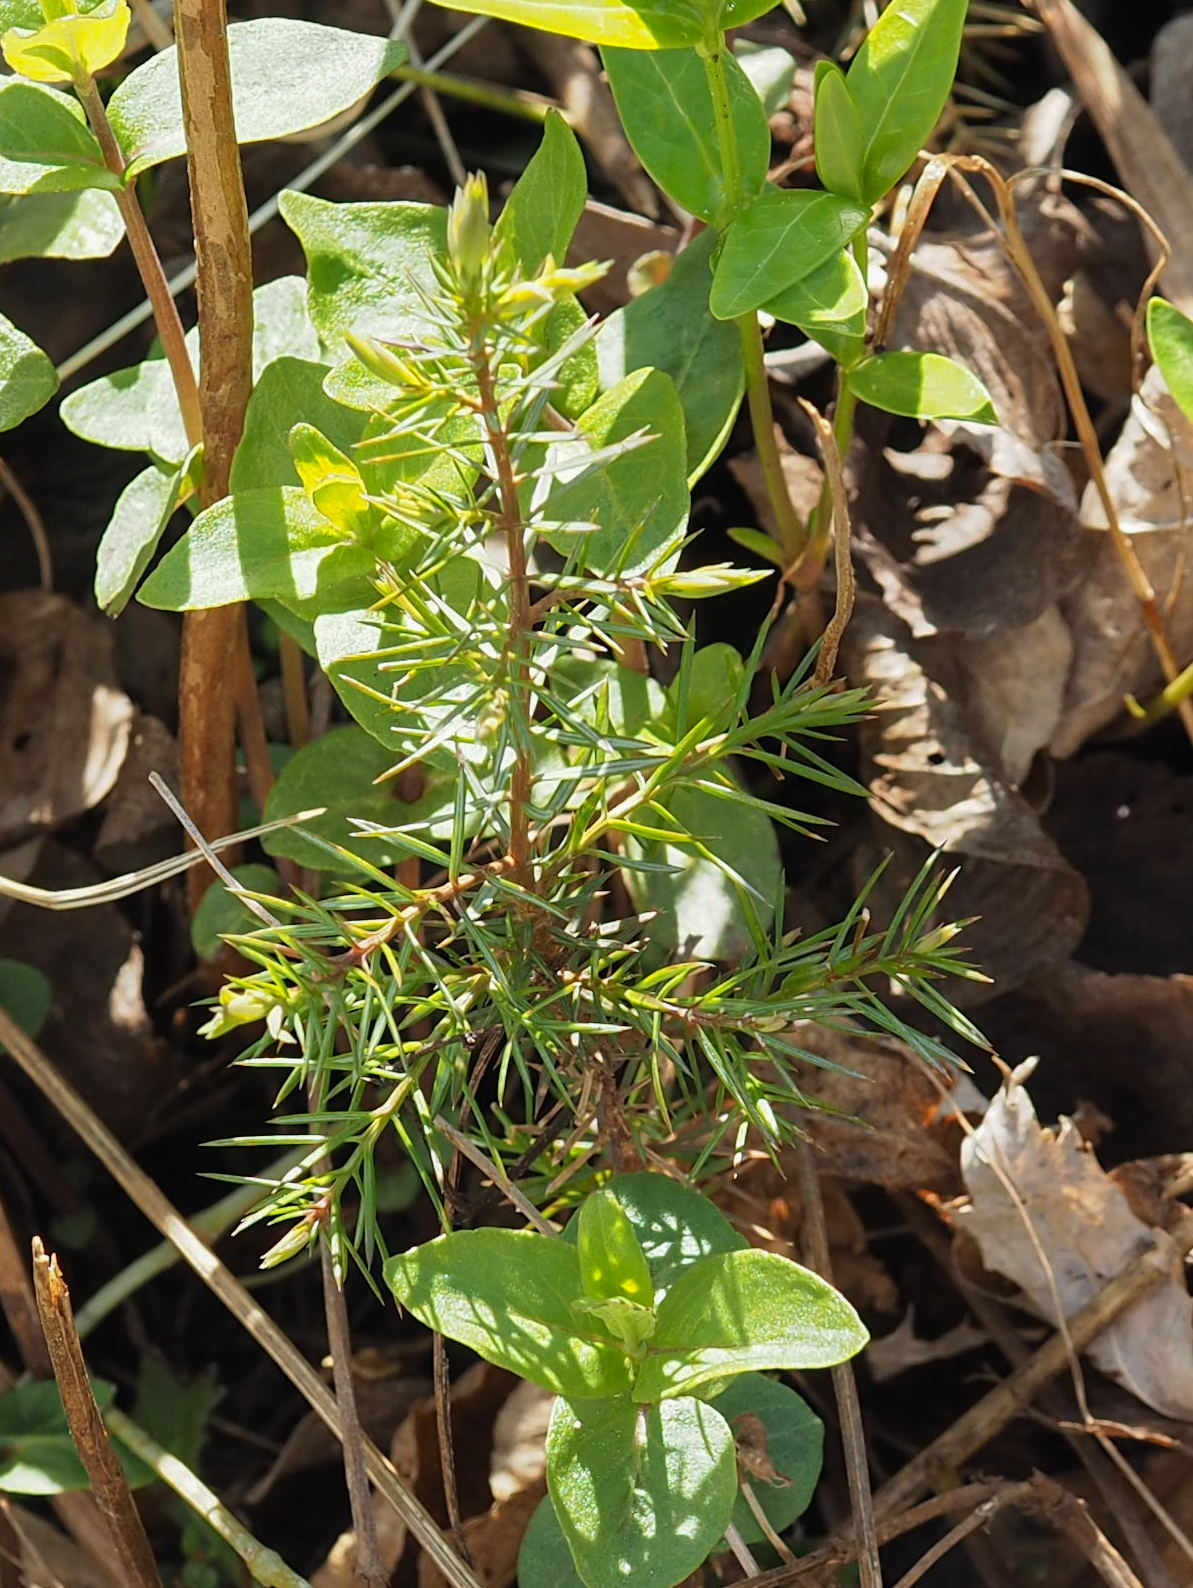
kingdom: Plantae
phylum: Tracheophyta
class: Pinopsida
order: Pinales
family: Cupressaceae
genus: Juniperus
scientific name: Juniperus virginiana
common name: Red juniper
